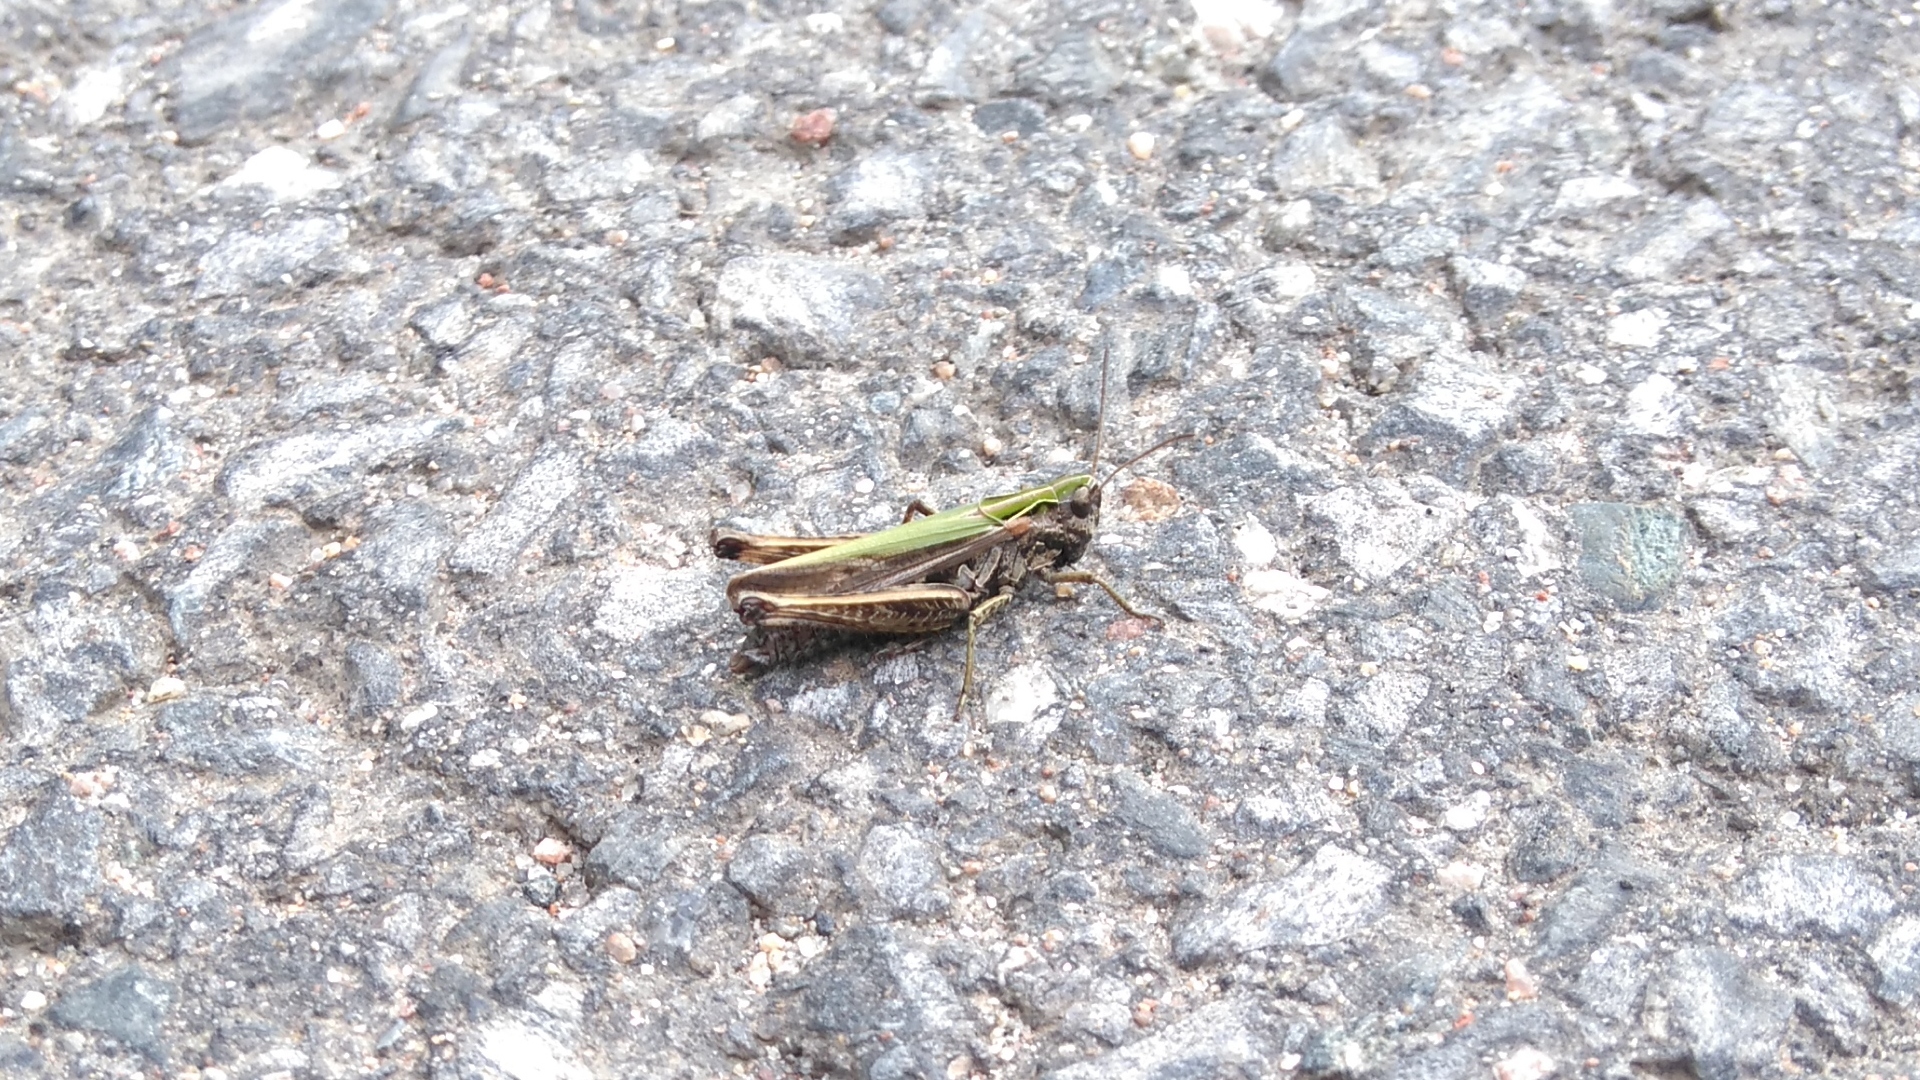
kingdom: Animalia
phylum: Arthropoda
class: Insecta
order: Orthoptera
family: Acrididae
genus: Omocestus
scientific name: Omocestus viridulus
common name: Common green grasshopper
